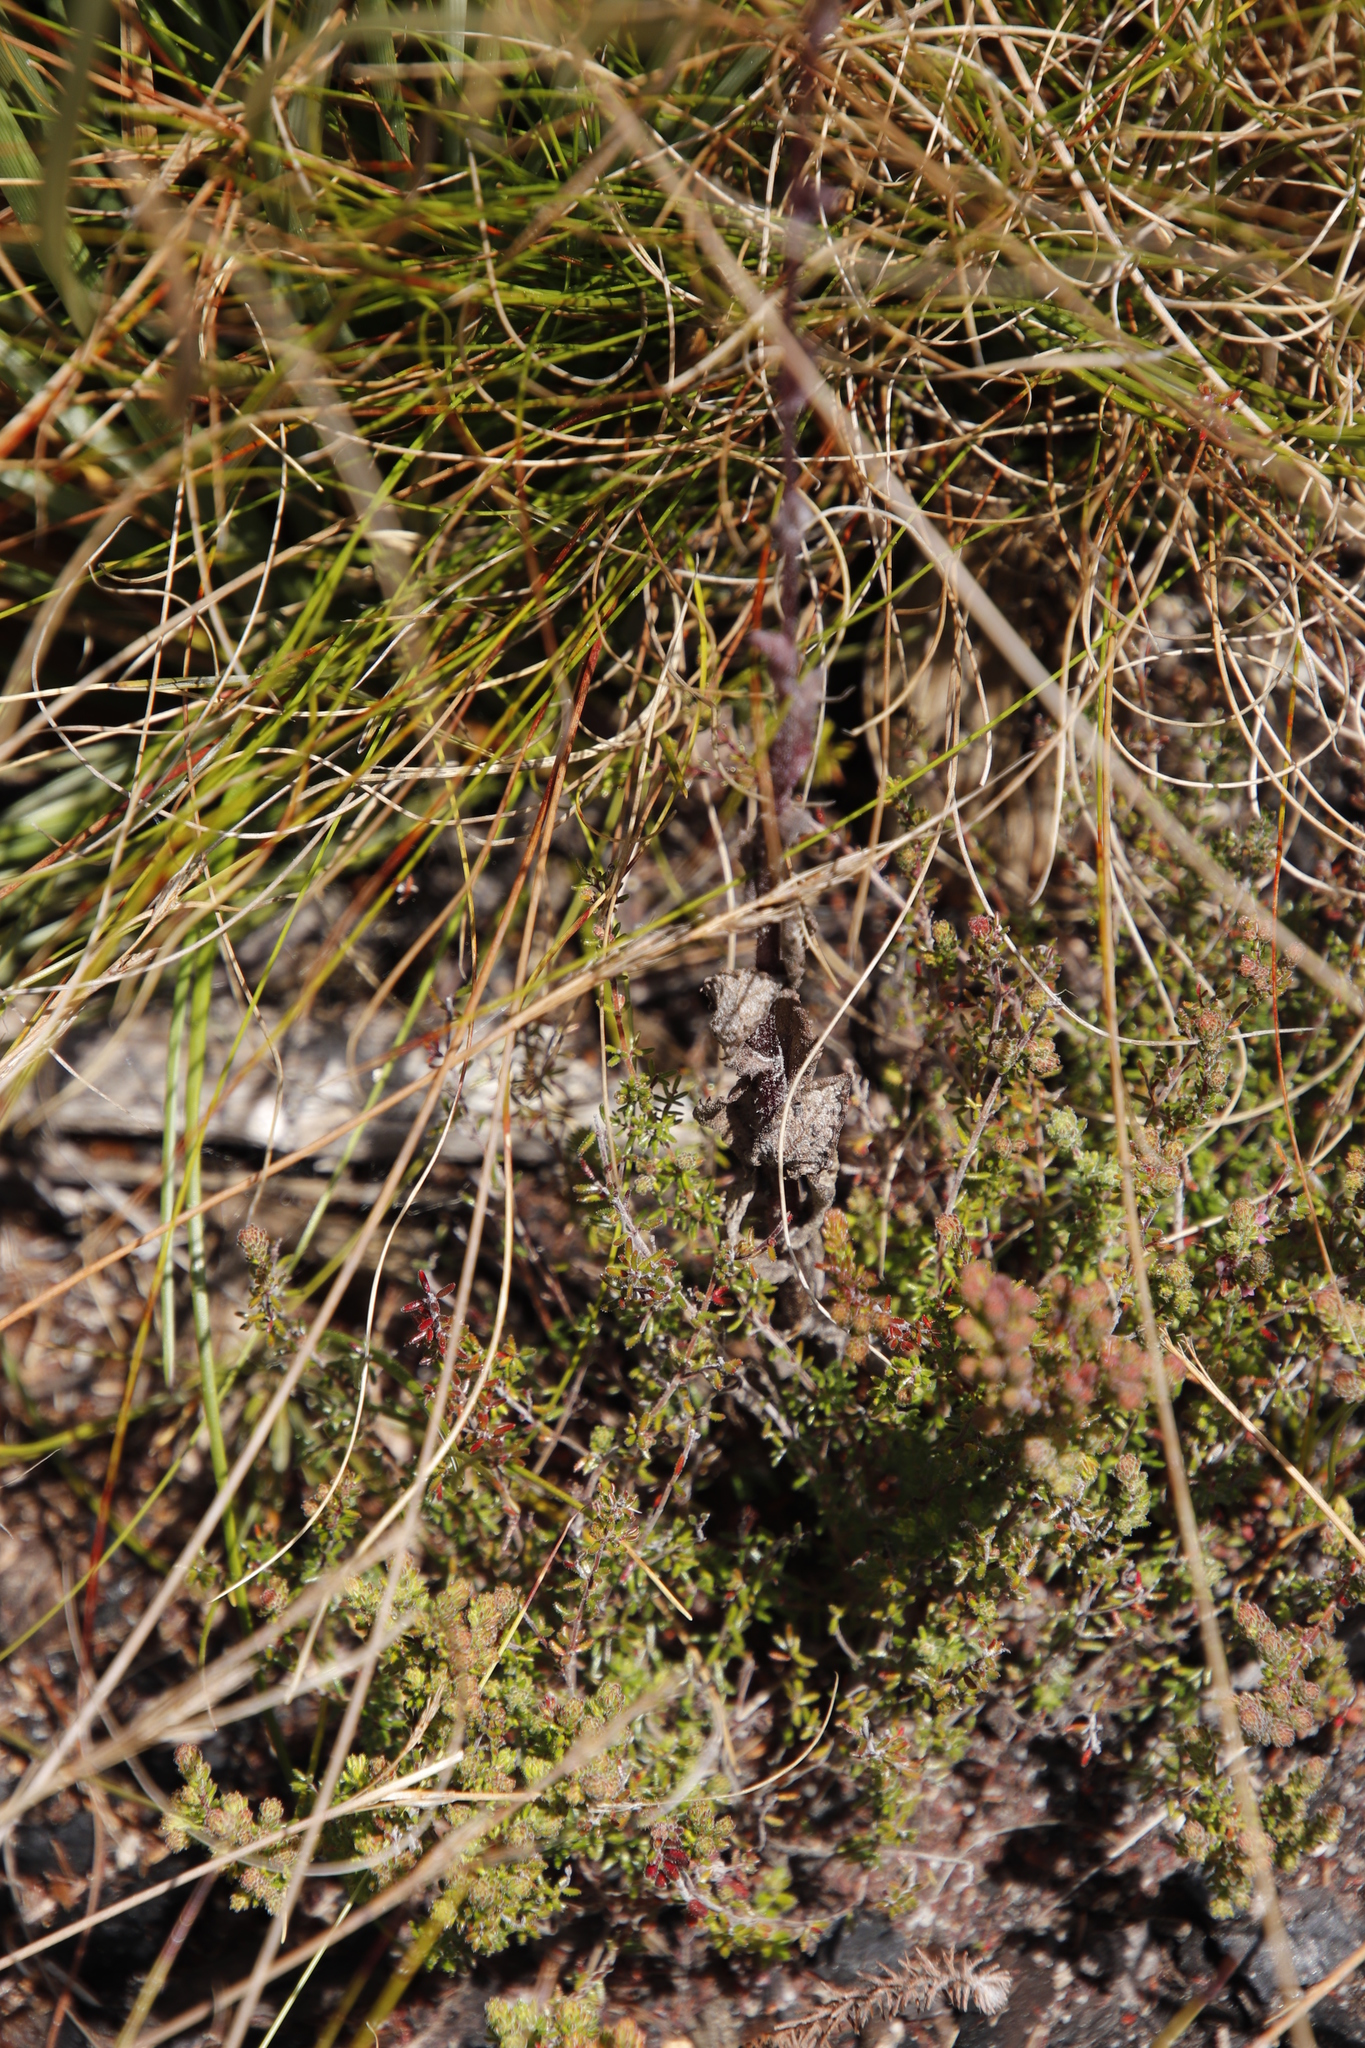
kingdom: Plantae
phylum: Tracheophyta
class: Magnoliopsida
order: Lamiales
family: Stilbaceae
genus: Kogelbergia
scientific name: Kogelbergia verticillata
